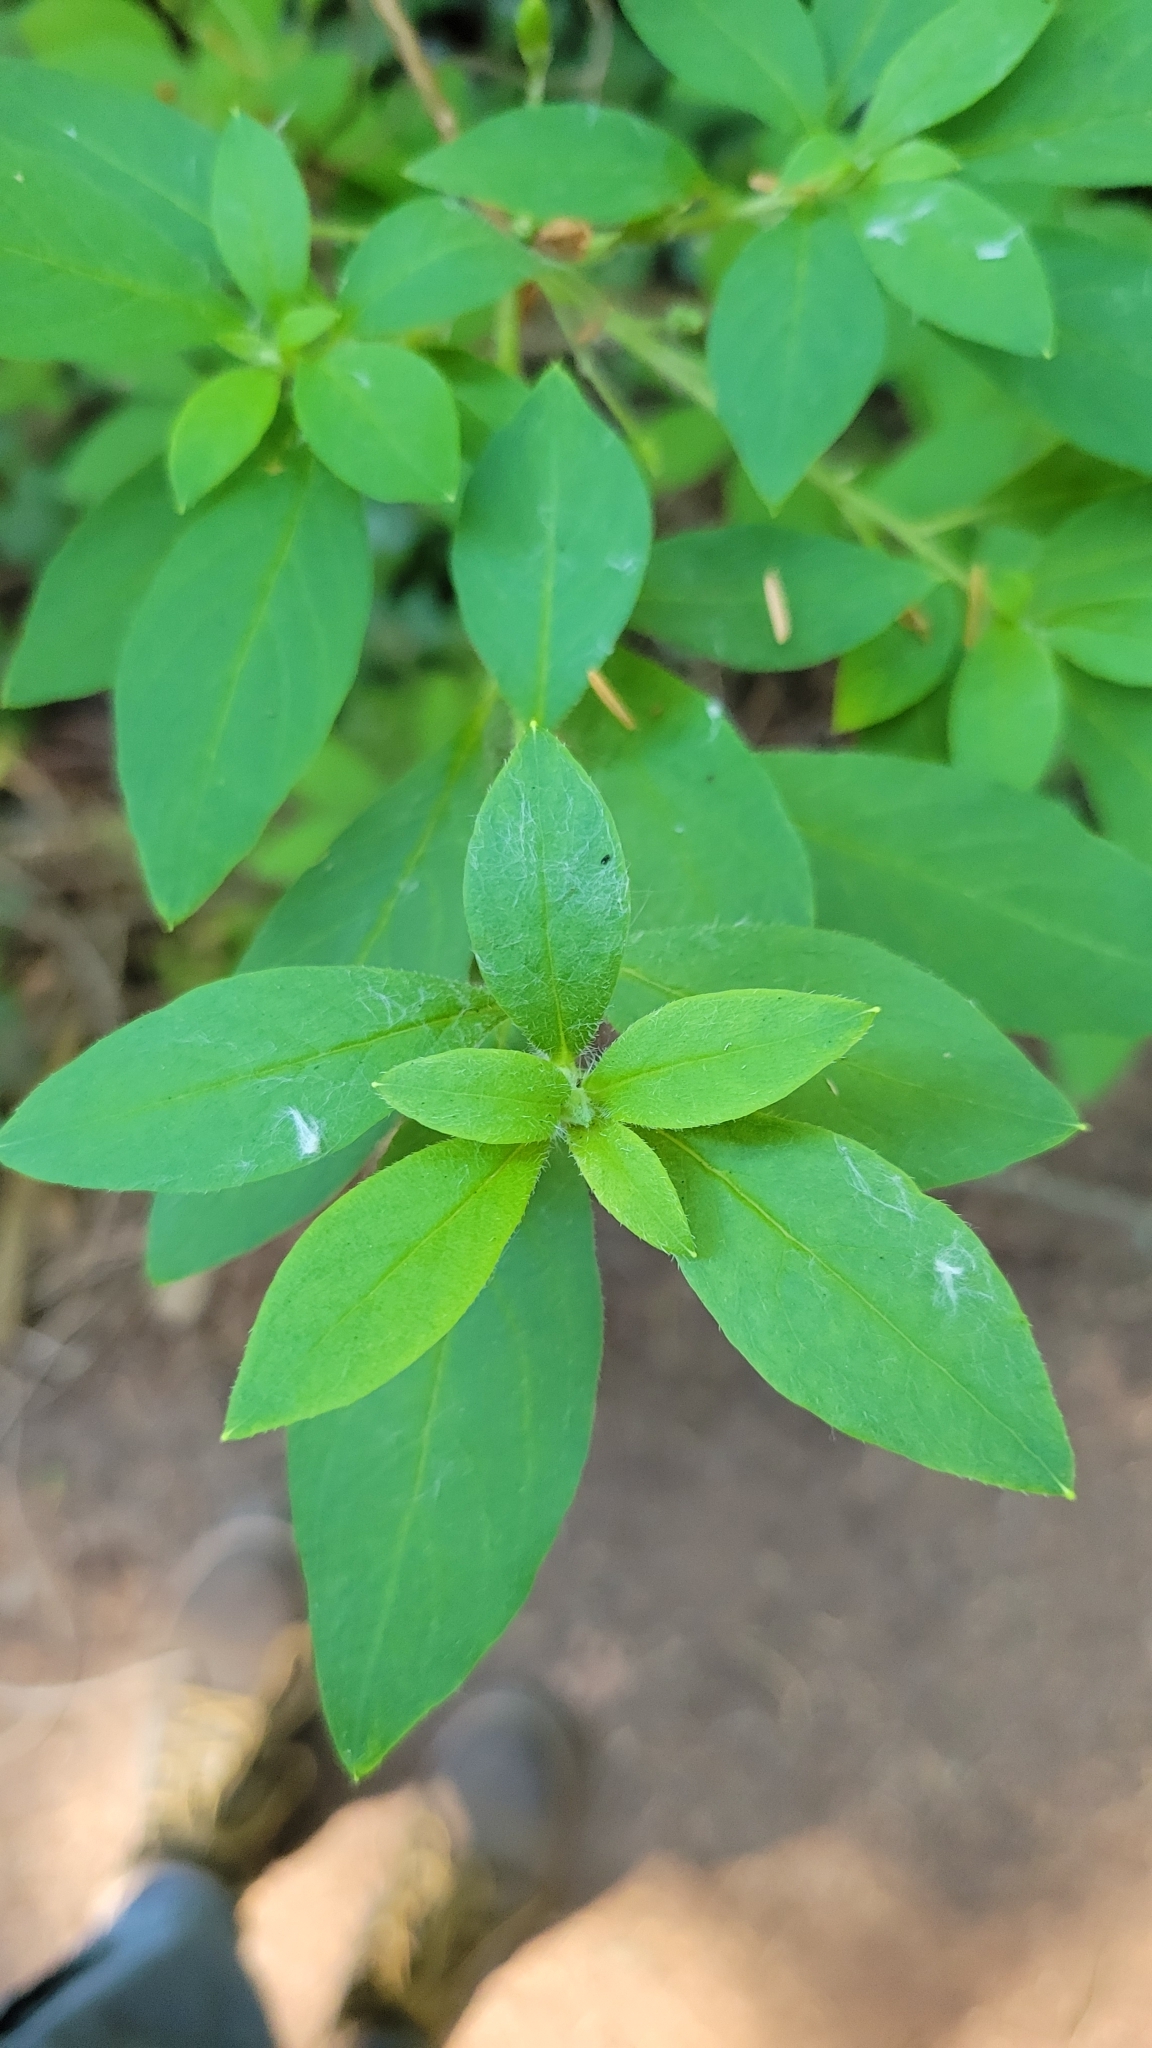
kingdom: Plantae
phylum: Tracheophyta
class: Magnoliopsida
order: Ericales
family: Ericaceae
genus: Rhododendron
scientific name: Rhododendron menziesii
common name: Pacific menziesia
